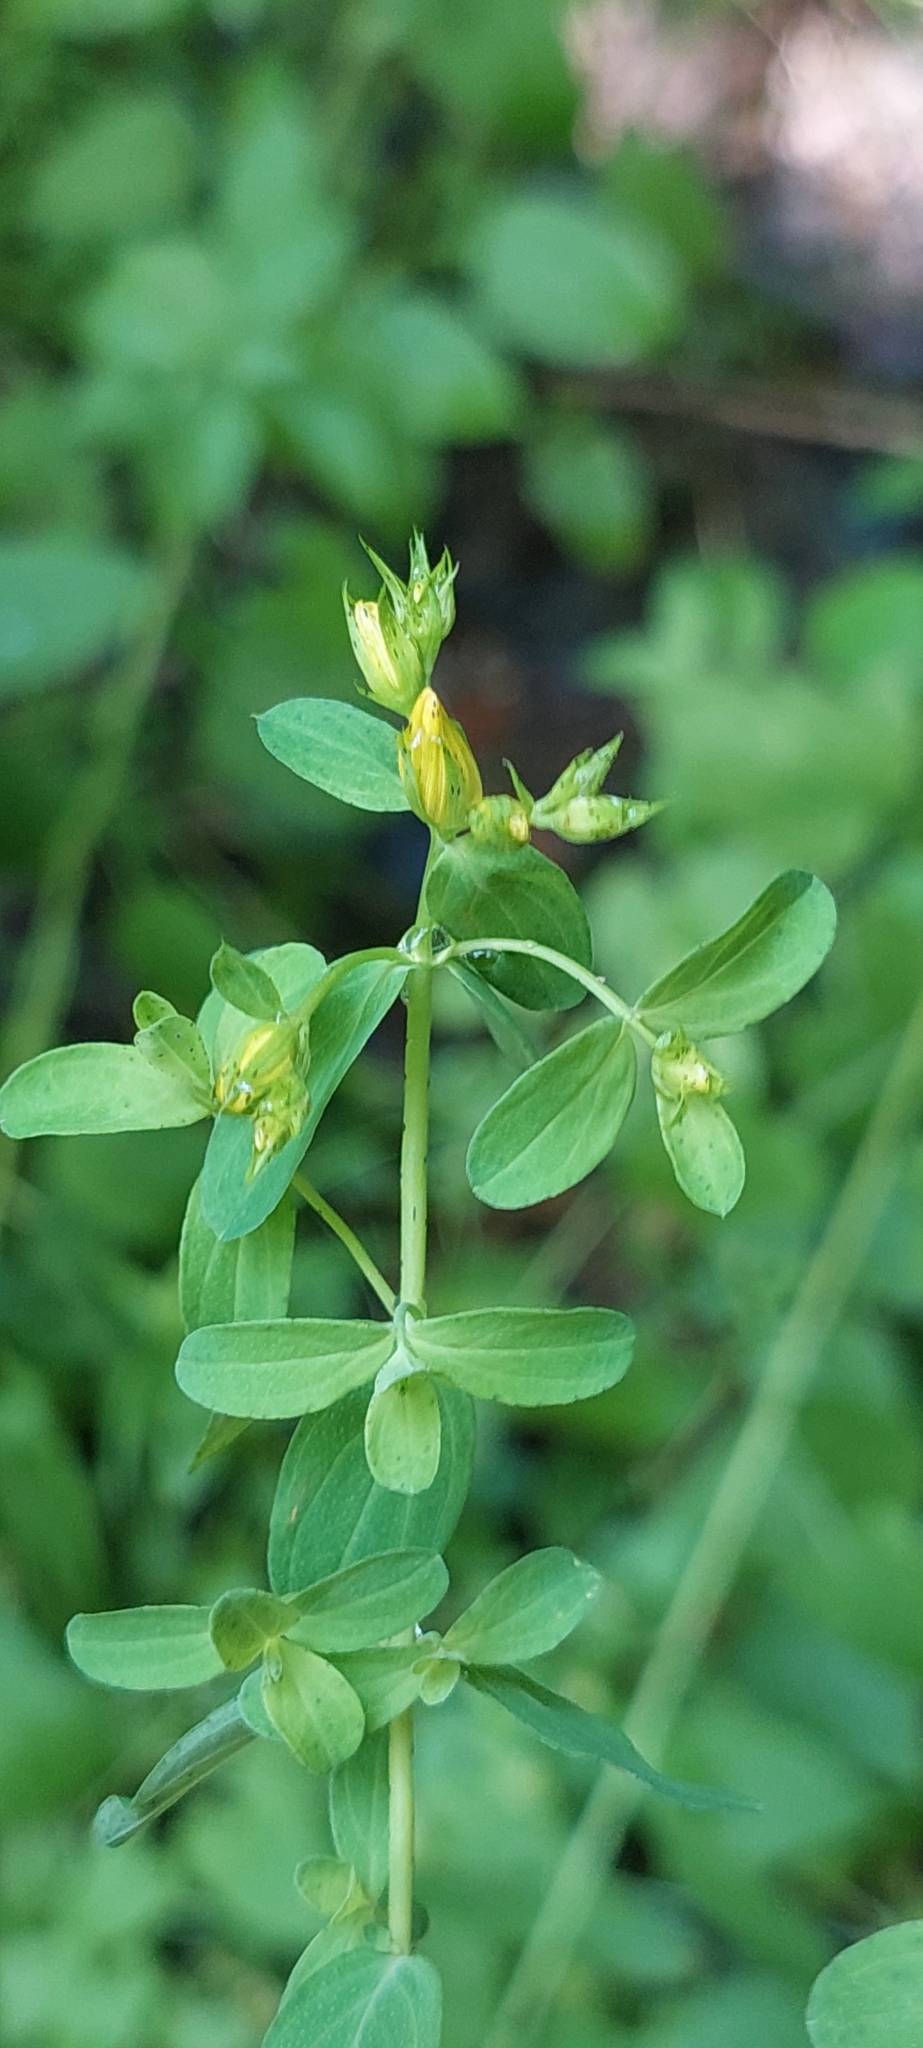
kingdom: Plantae
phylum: Tracheophyta
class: Magnoliopsida
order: Malpighiales
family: Hypericaceae
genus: Hypericum
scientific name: Hypericum perforatum
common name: Common st. johnswort
